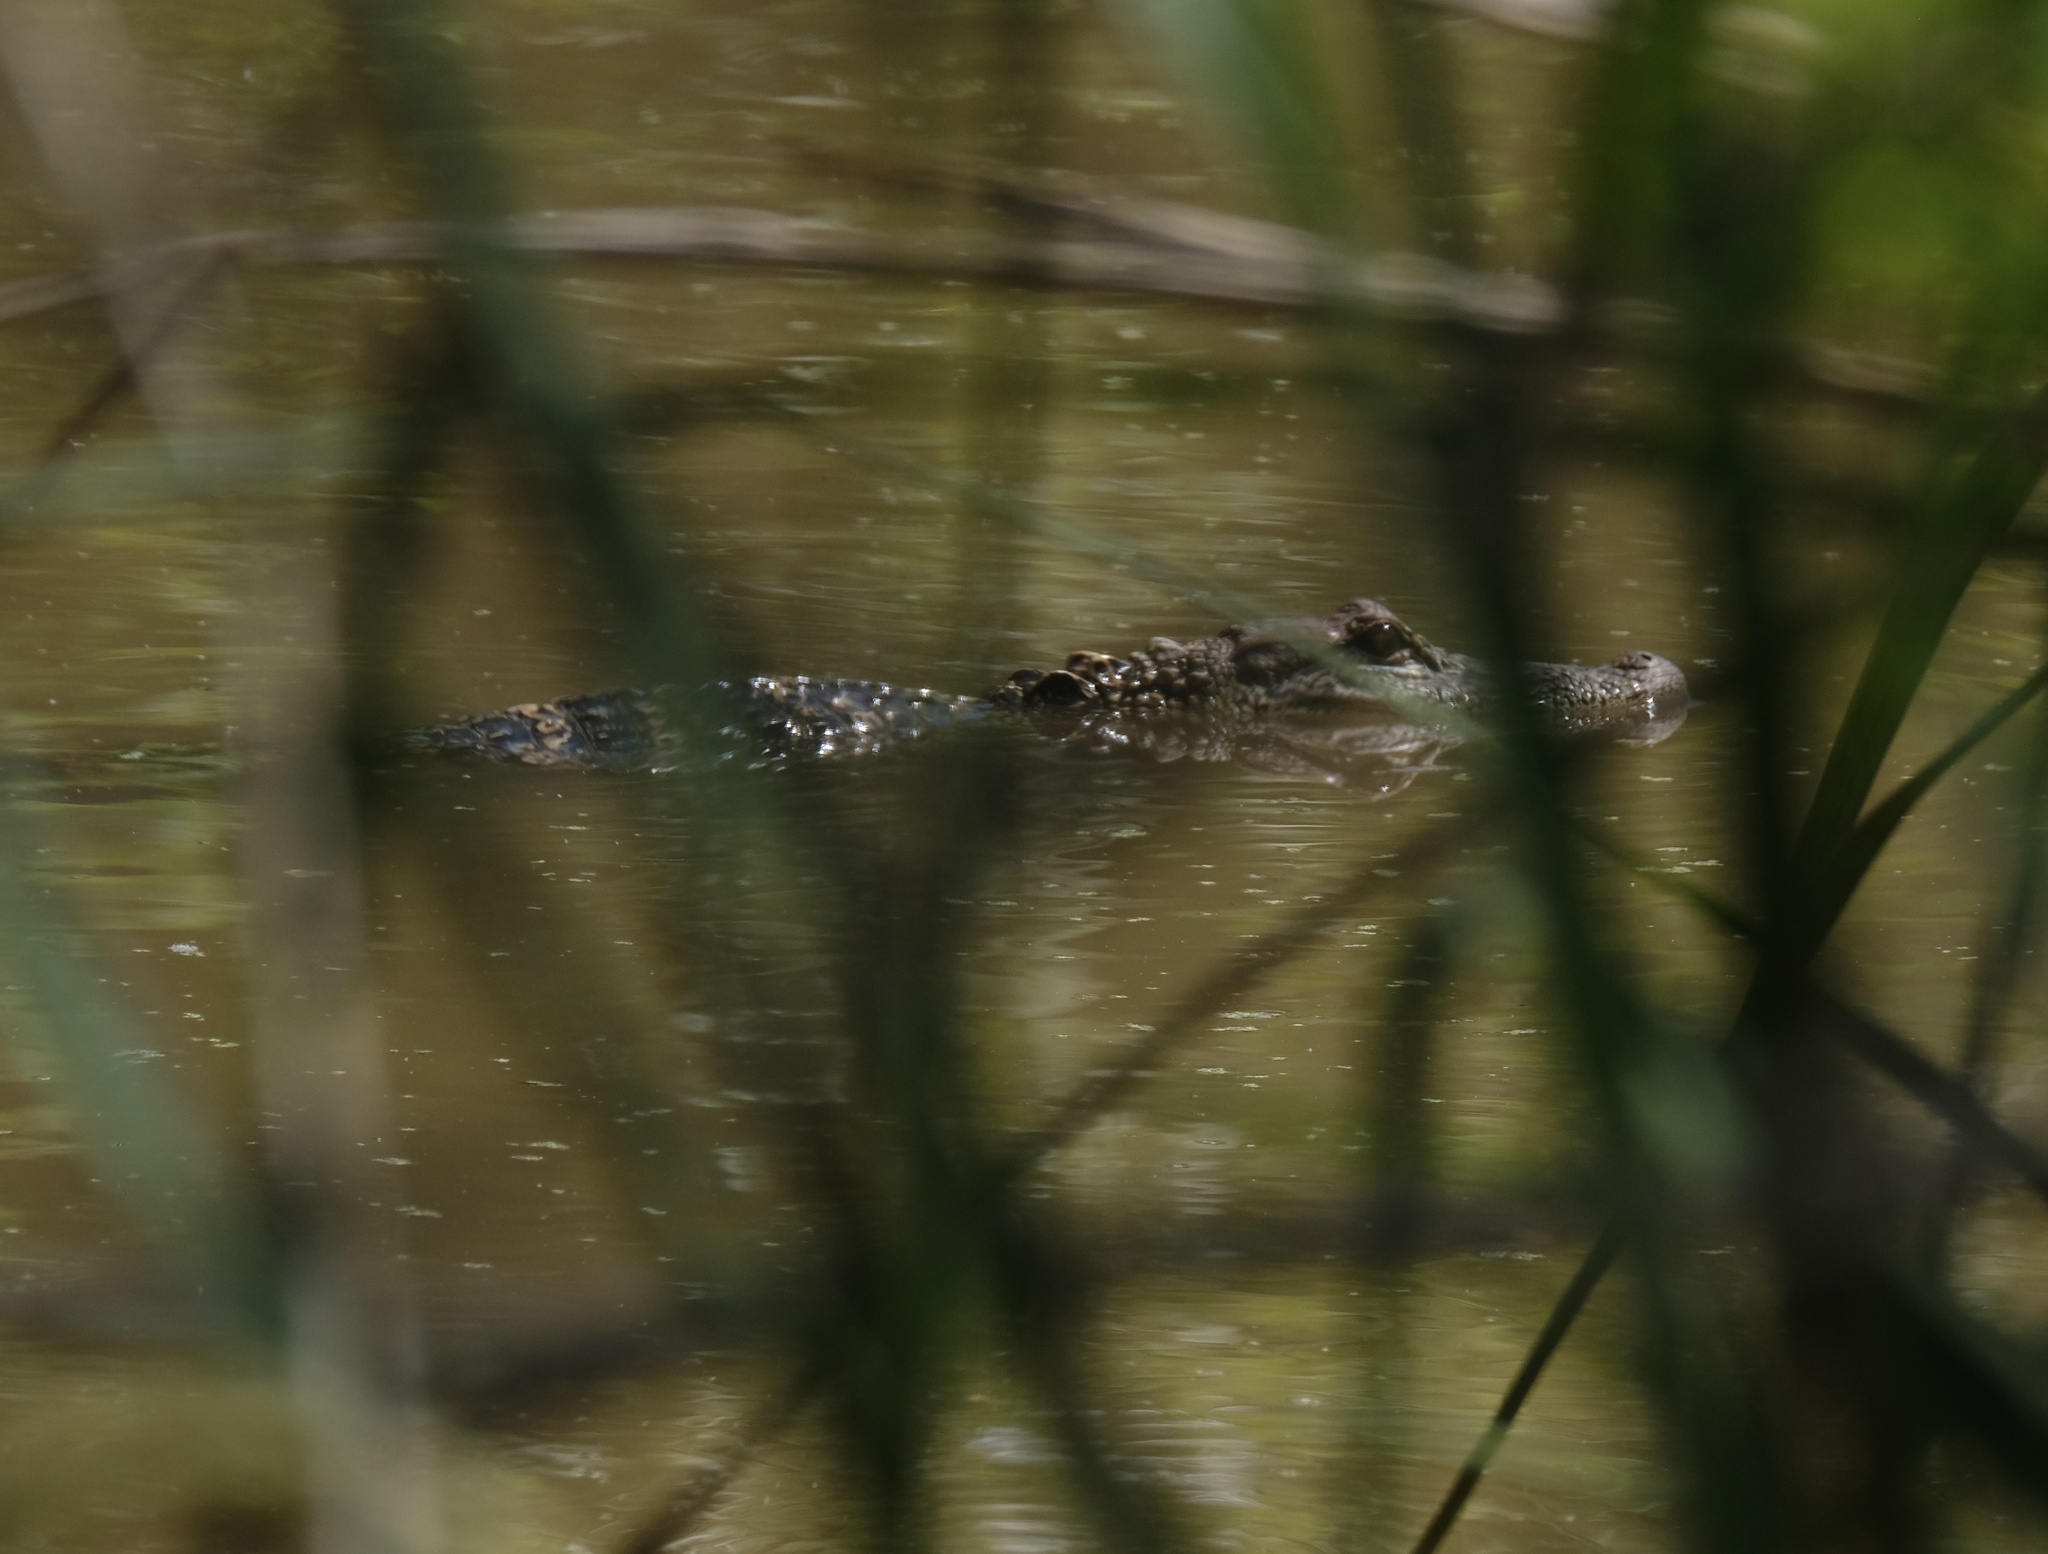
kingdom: Animalia
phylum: Chordata
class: Crocodylia
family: Alligatoridae
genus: Alligator
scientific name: Alligator mississippiensis
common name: American alligator
